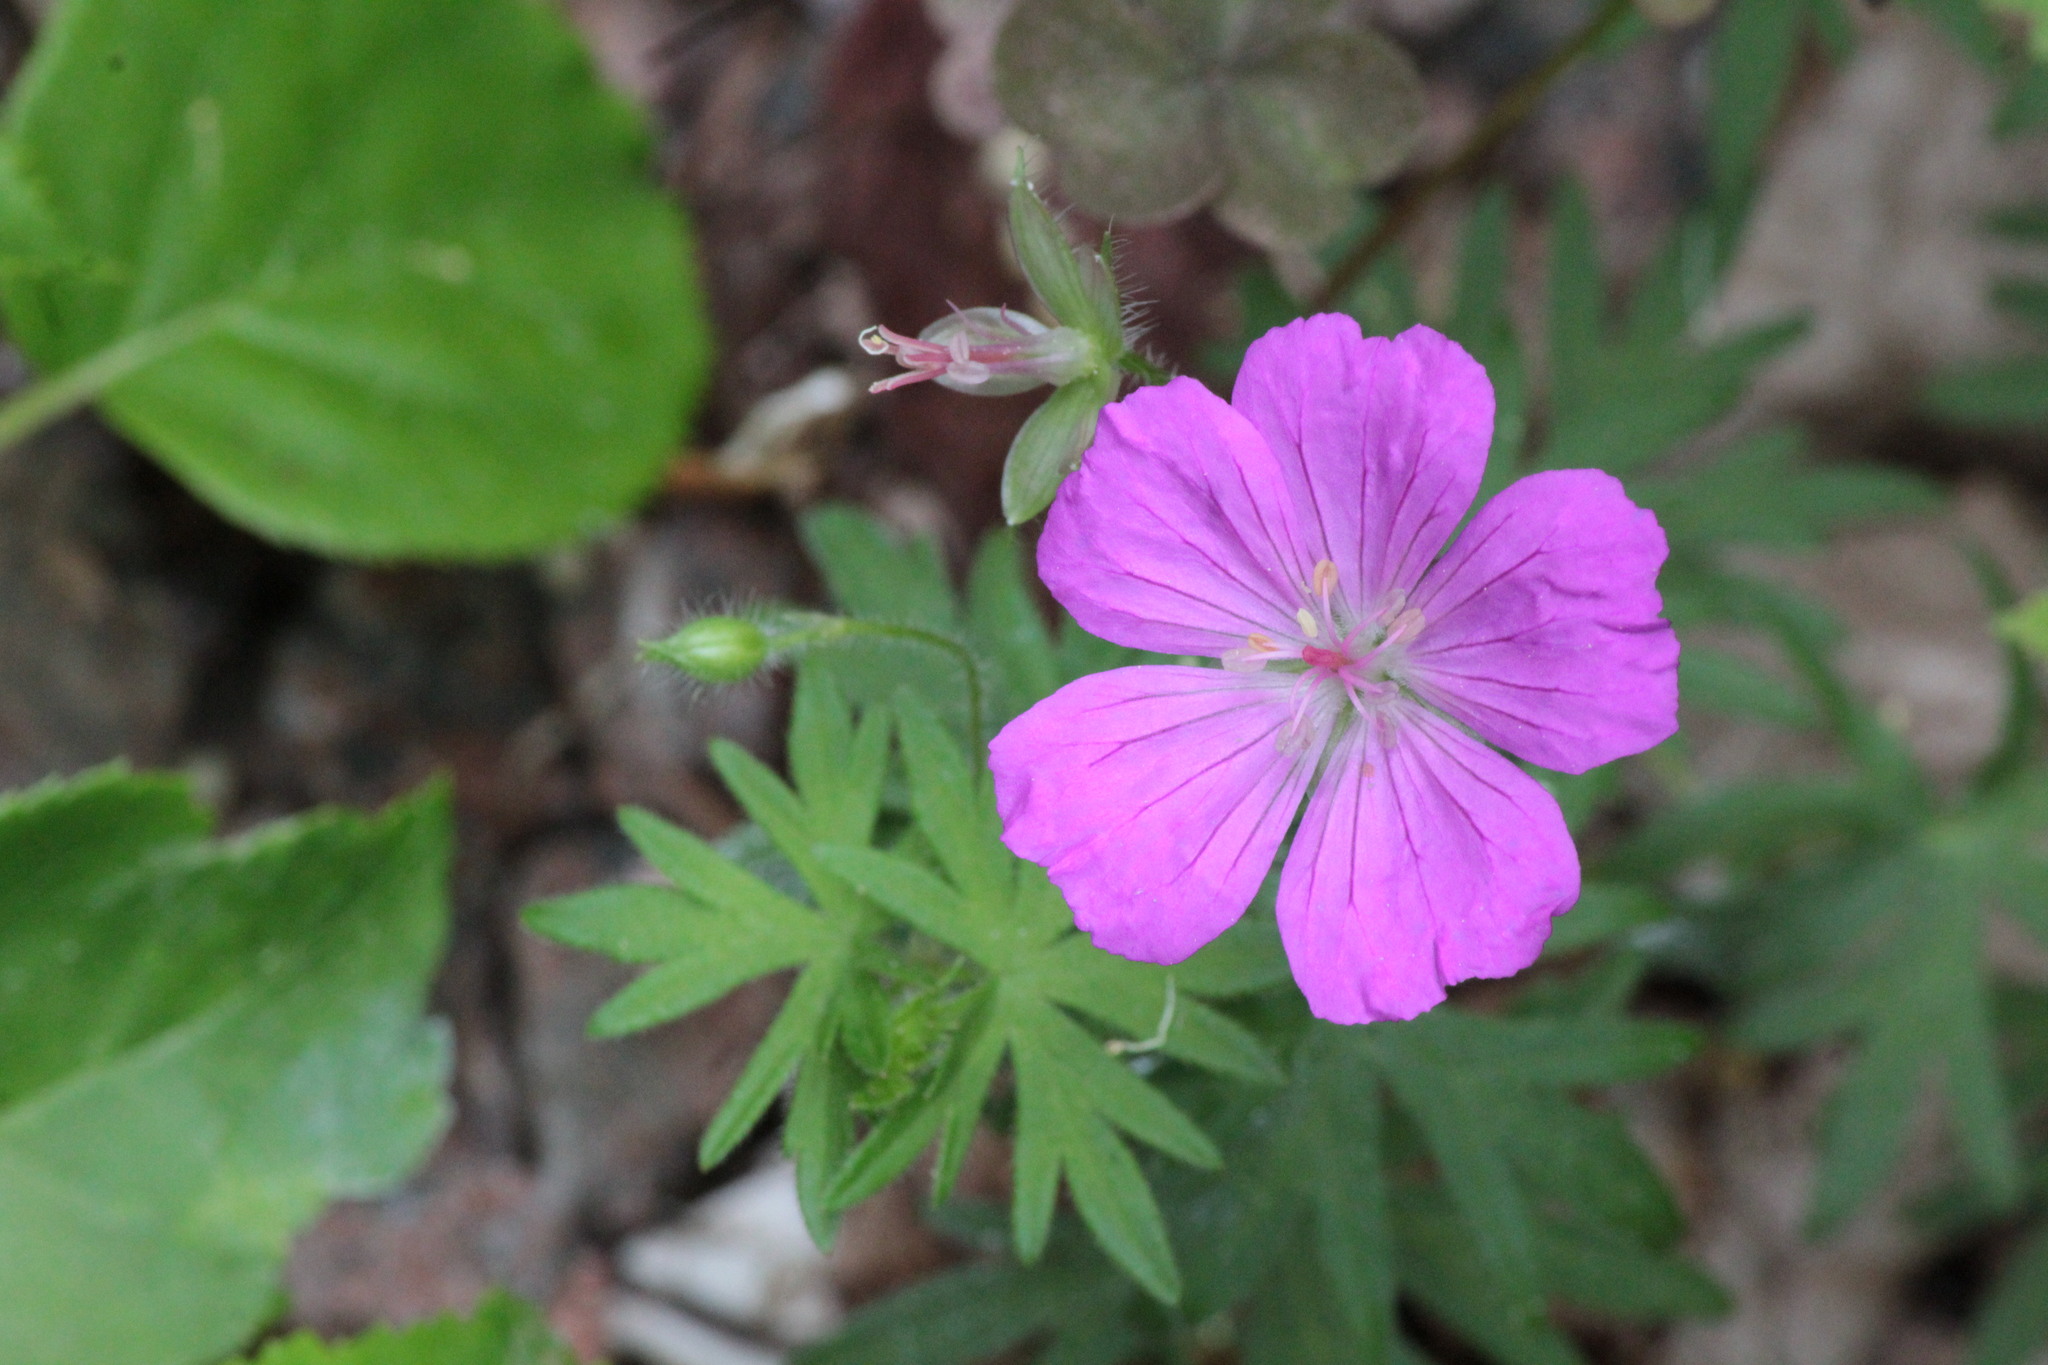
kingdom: Plantae
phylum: Tracheophyta
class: Magnoliopsida
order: Geraniales
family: Geraniaceae
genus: Geranium
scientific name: Geranium sanguineum
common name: Bloody crane's-bill
